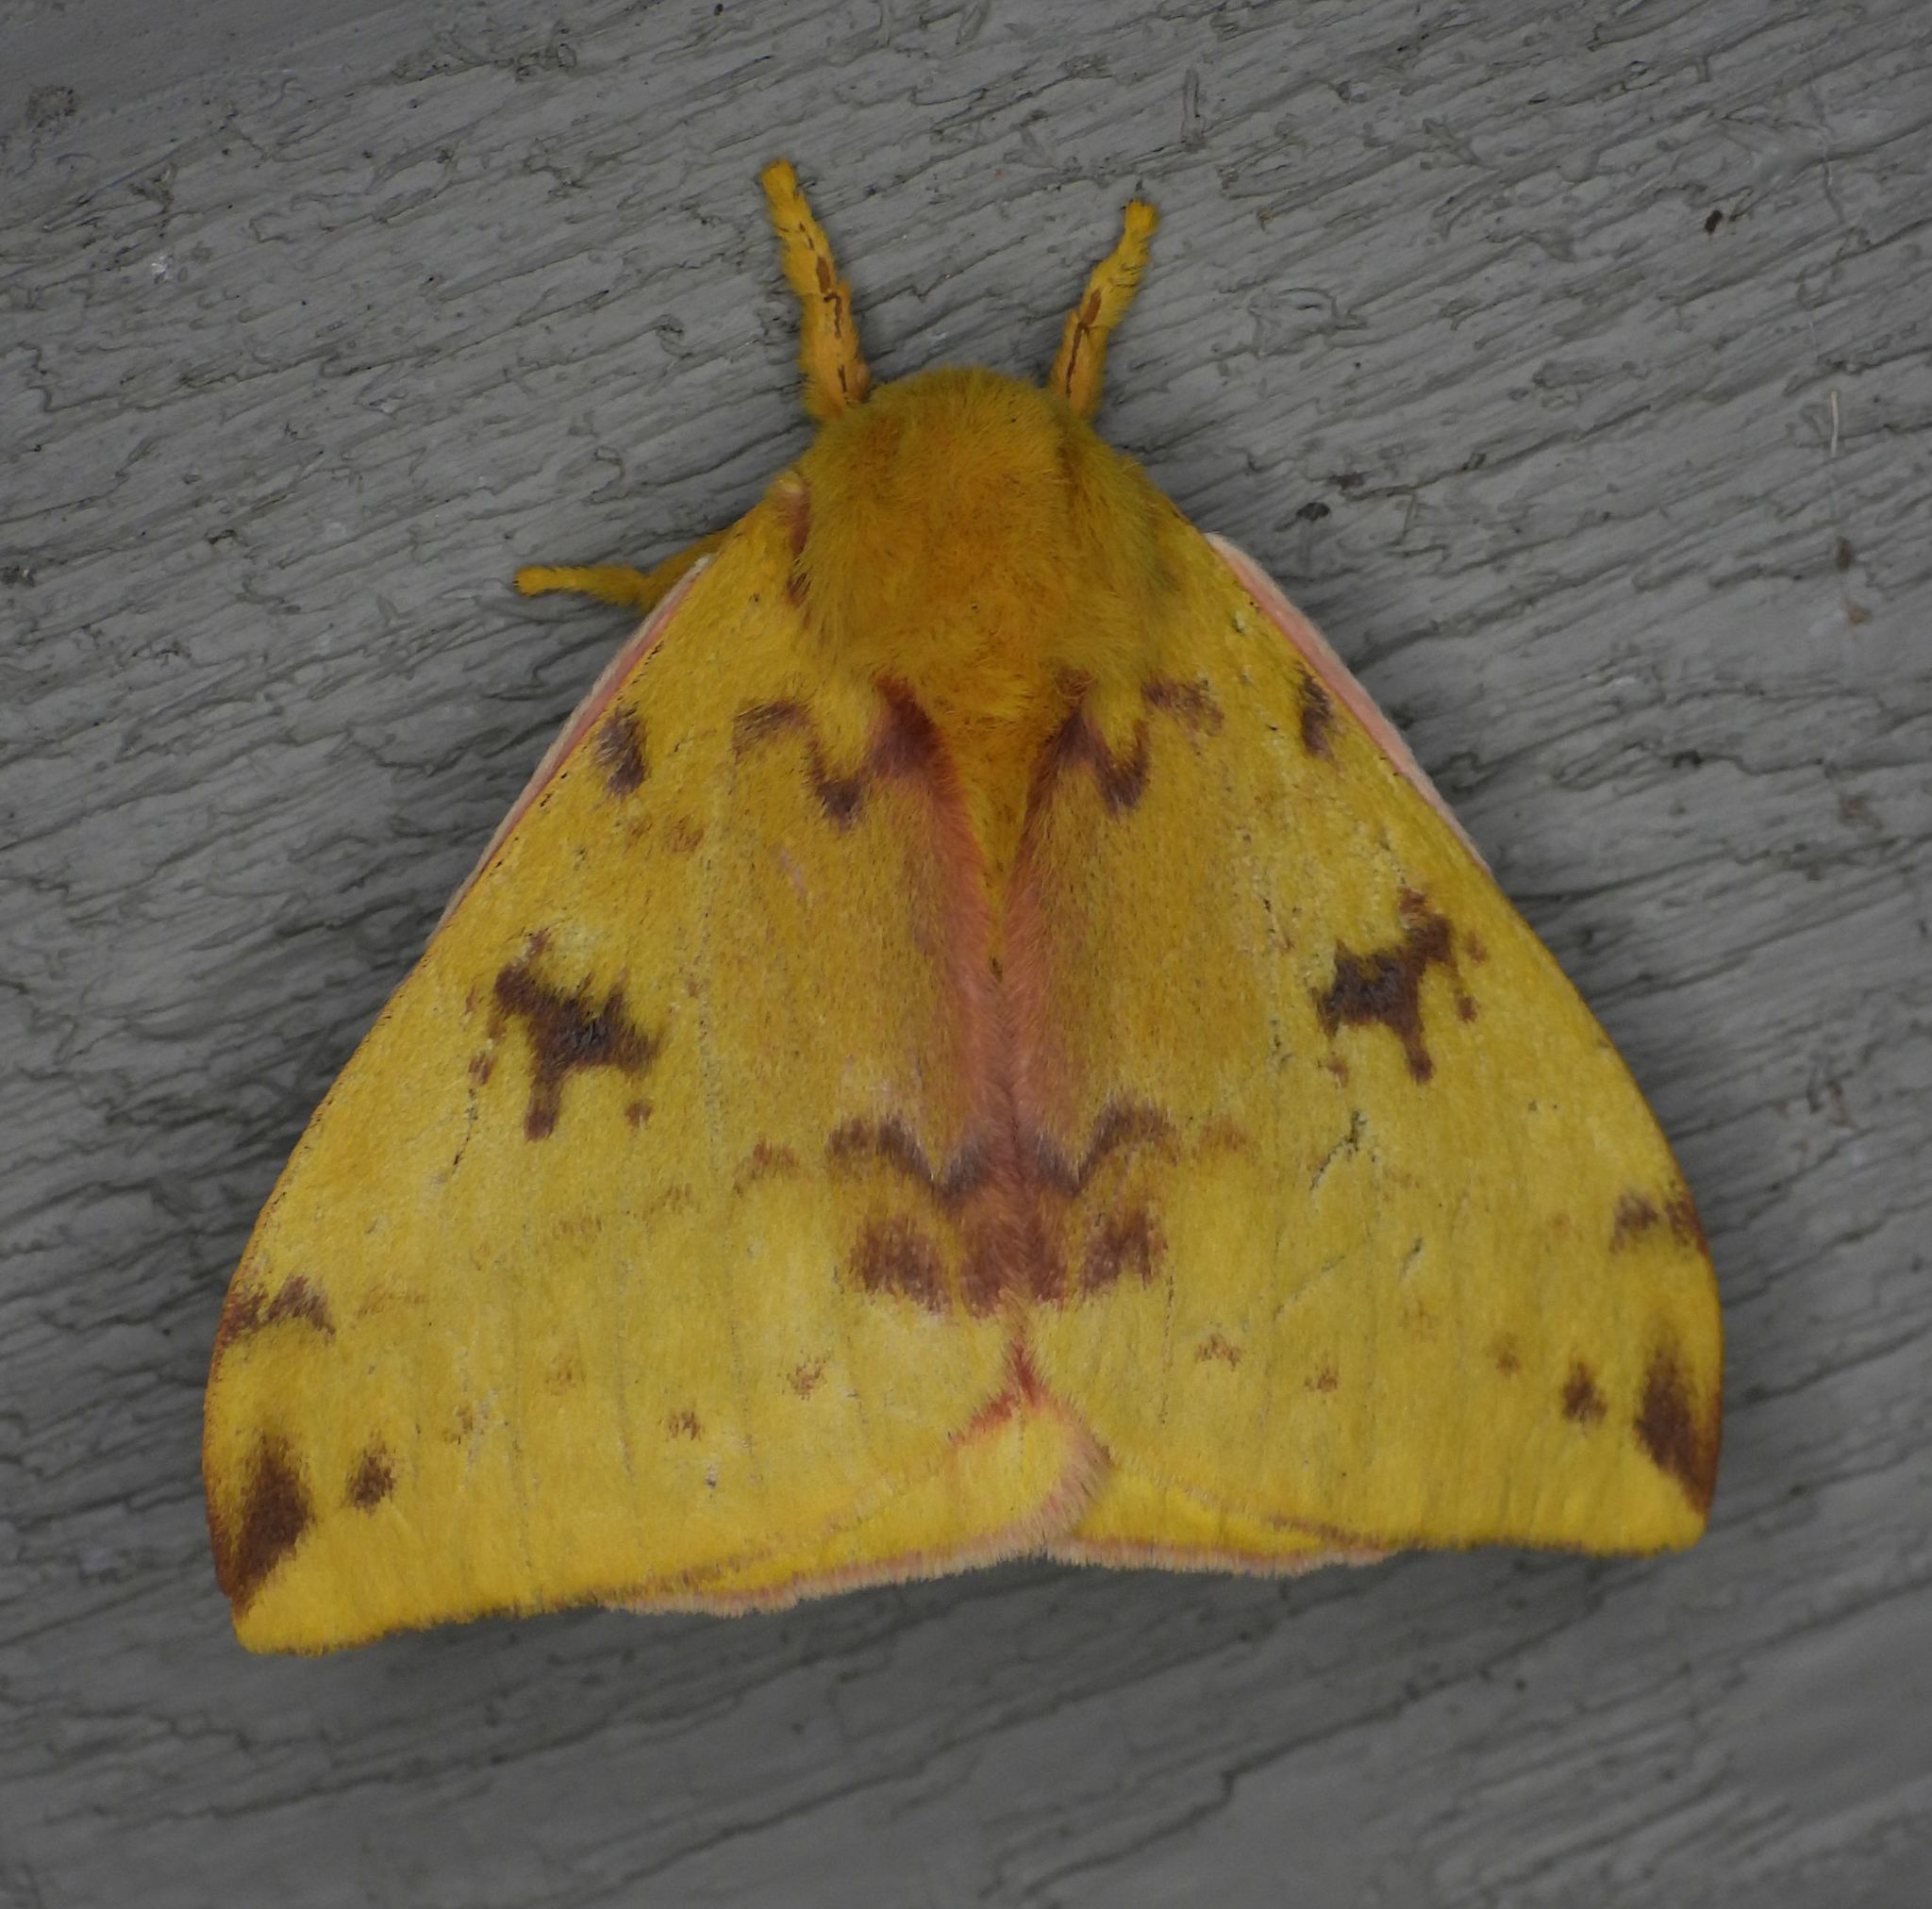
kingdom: Animalia
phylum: Arthropoda
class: Insecta
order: Lepidoptera
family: Saturniidae
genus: Automeris
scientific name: Automeris io
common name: Io moth
